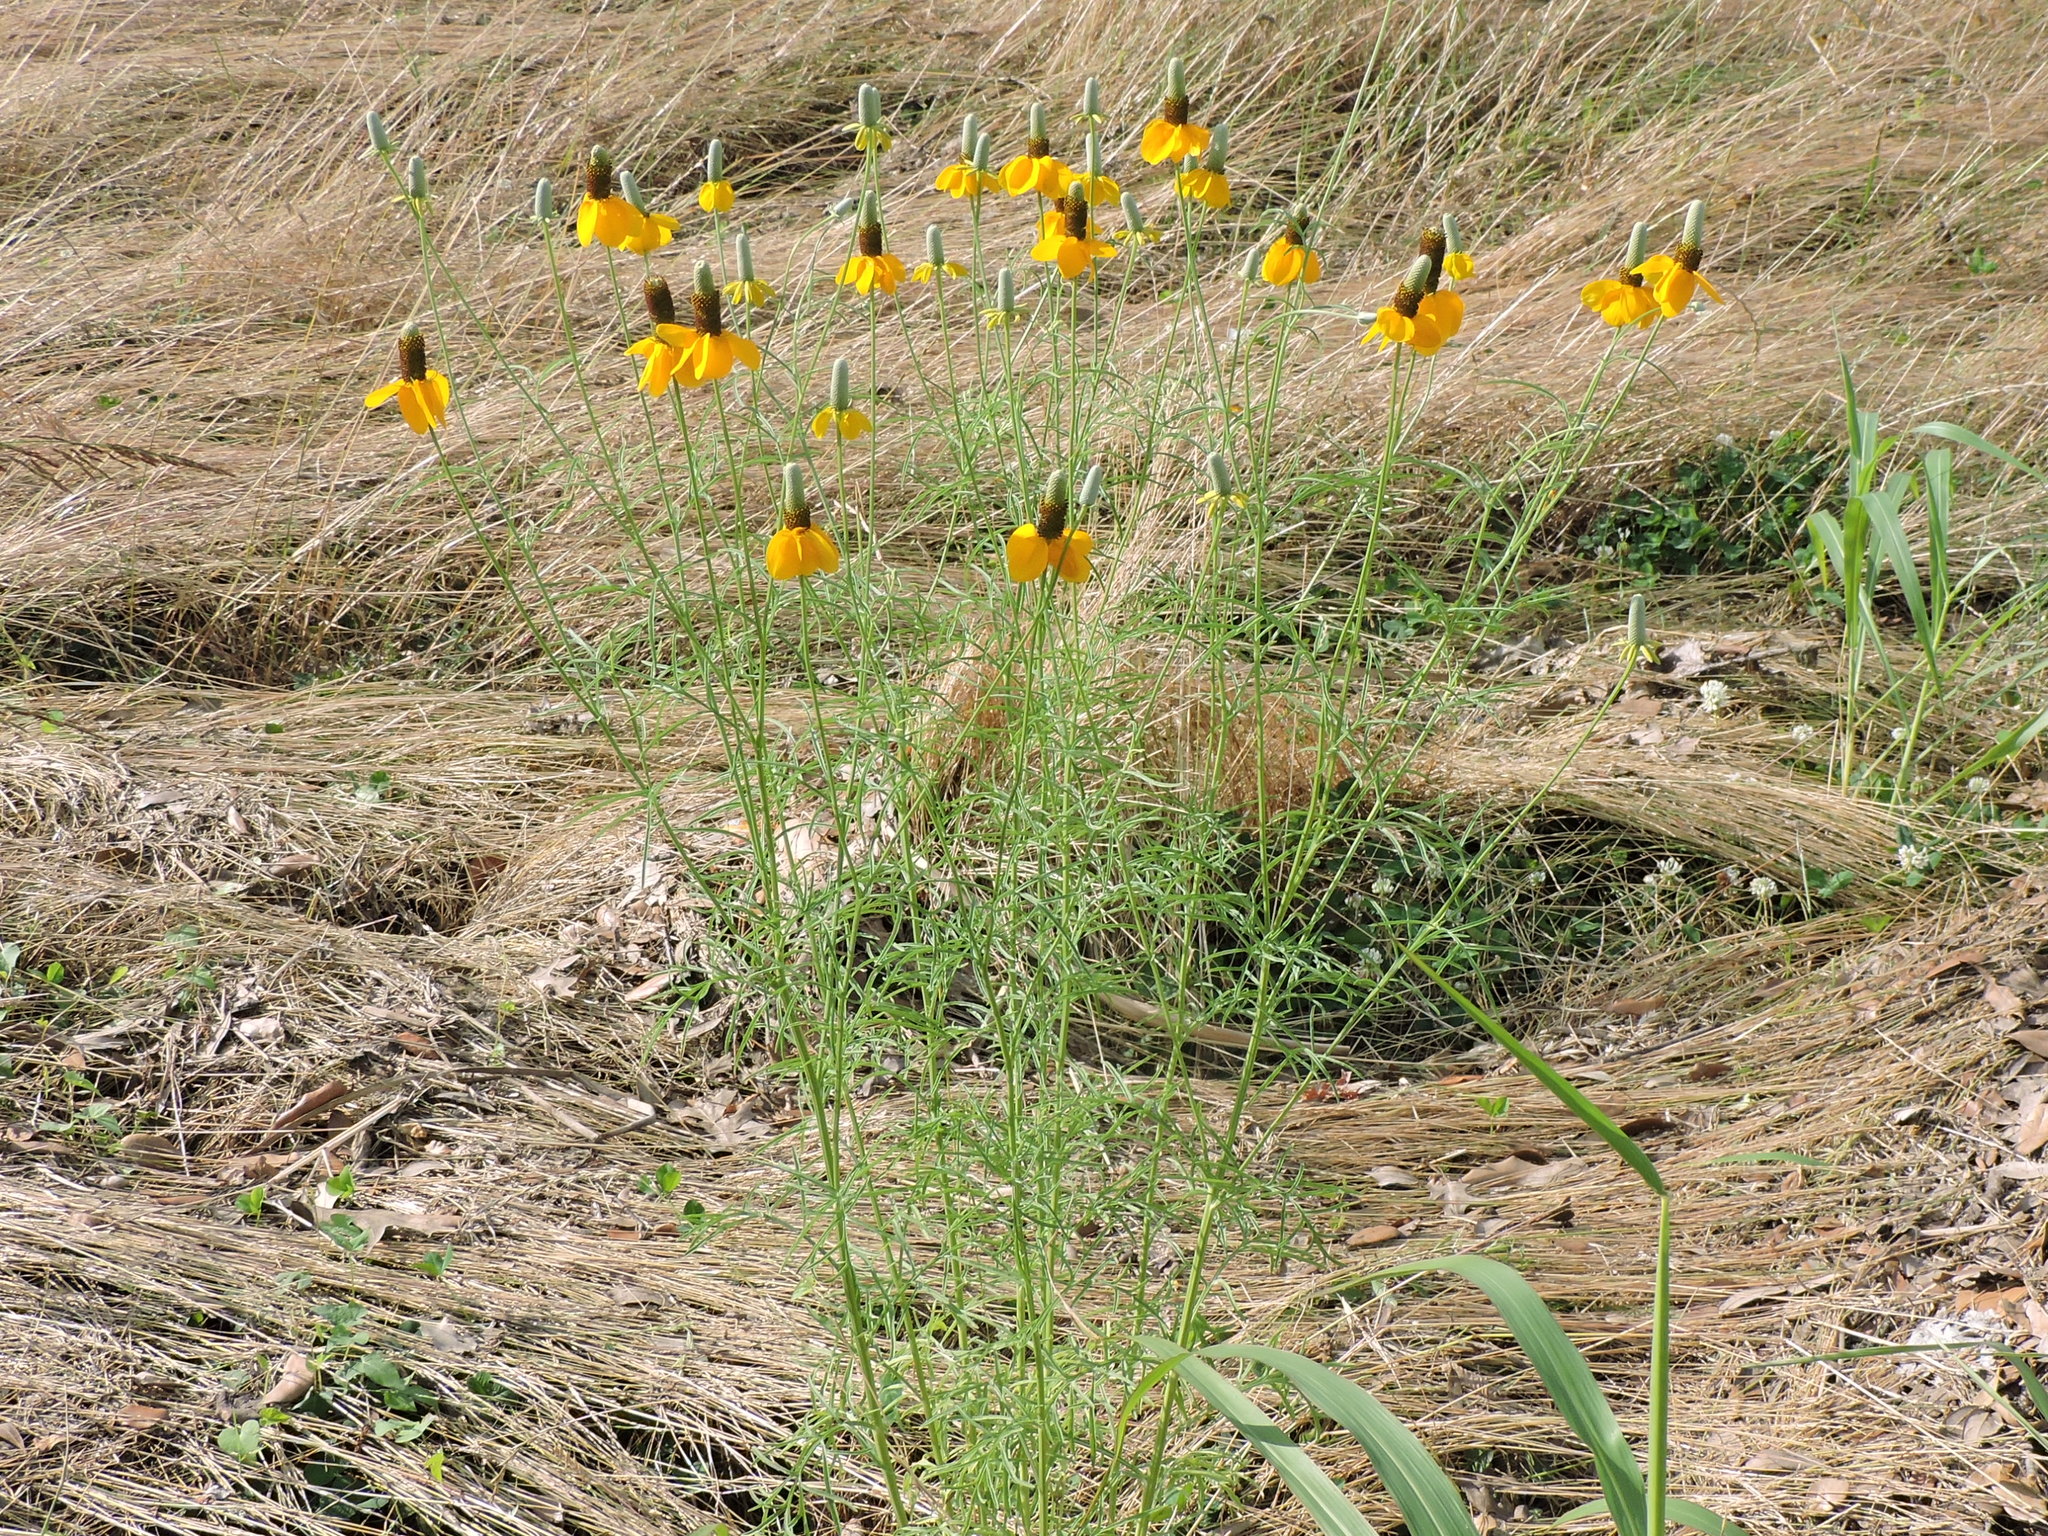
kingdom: Plantae
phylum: Tracheophyta
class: Magnoliopsida
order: Asterales
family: Asteraceae
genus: Ratibida
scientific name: Ratibida columnifera
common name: Prairie coneflower
